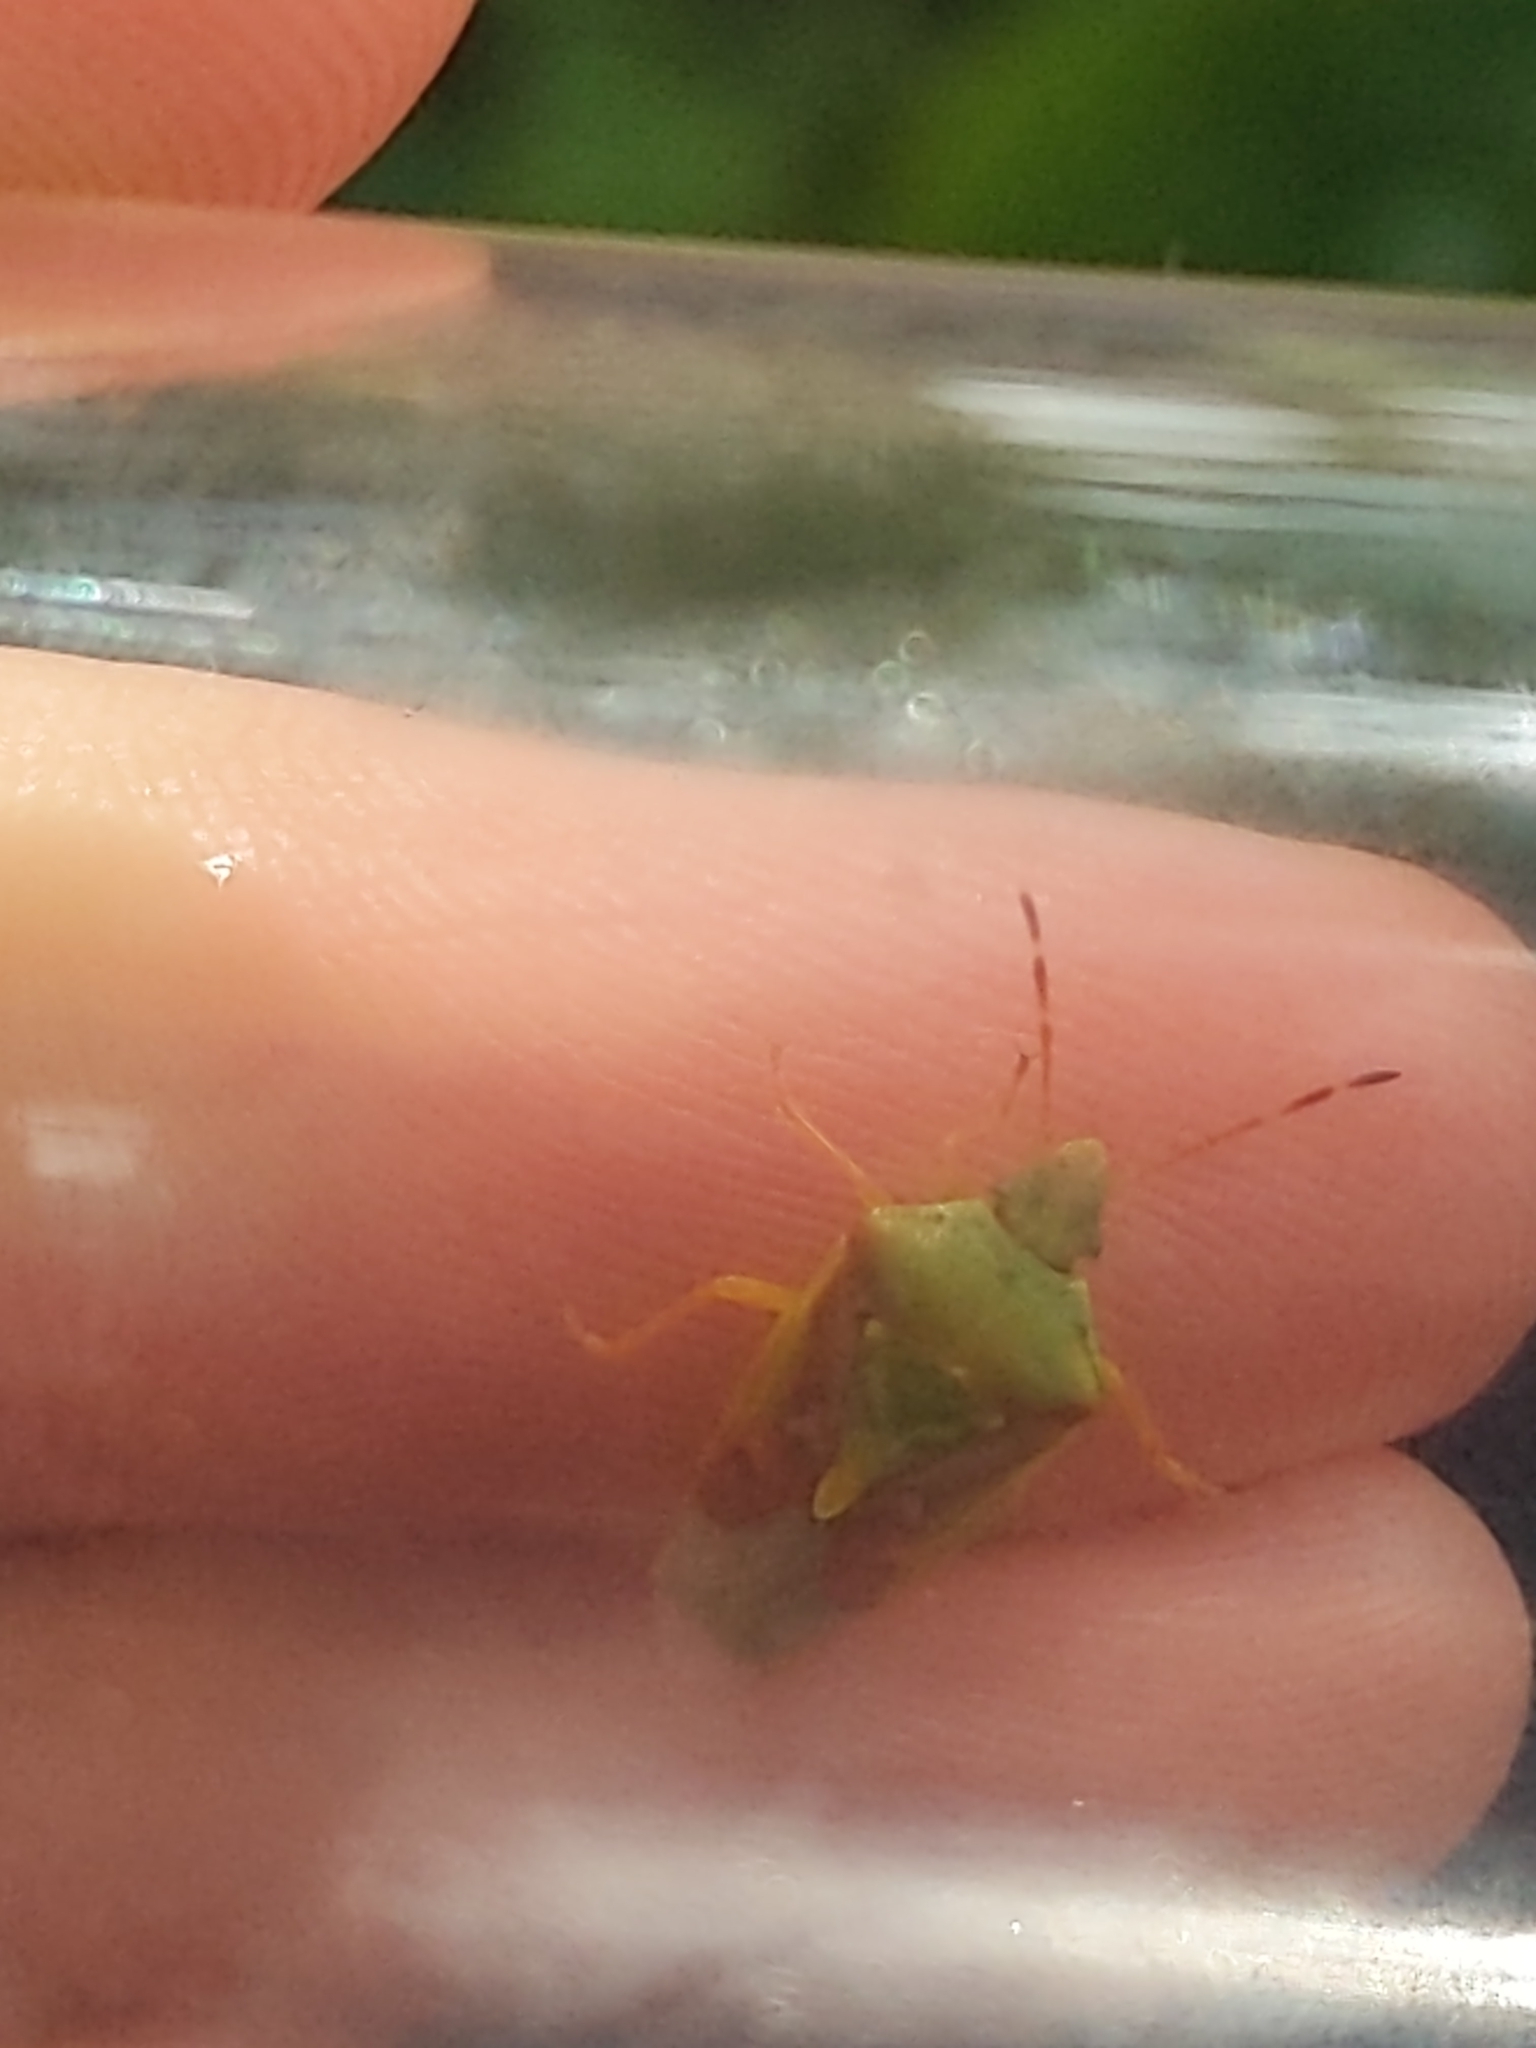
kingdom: Animalia
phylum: Arthropoda
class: Insecta
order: Hemiptera
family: Acanthosomatidae
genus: Cyphostethus
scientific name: Cyphostethus tristriatus
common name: Juniper shieldbug
